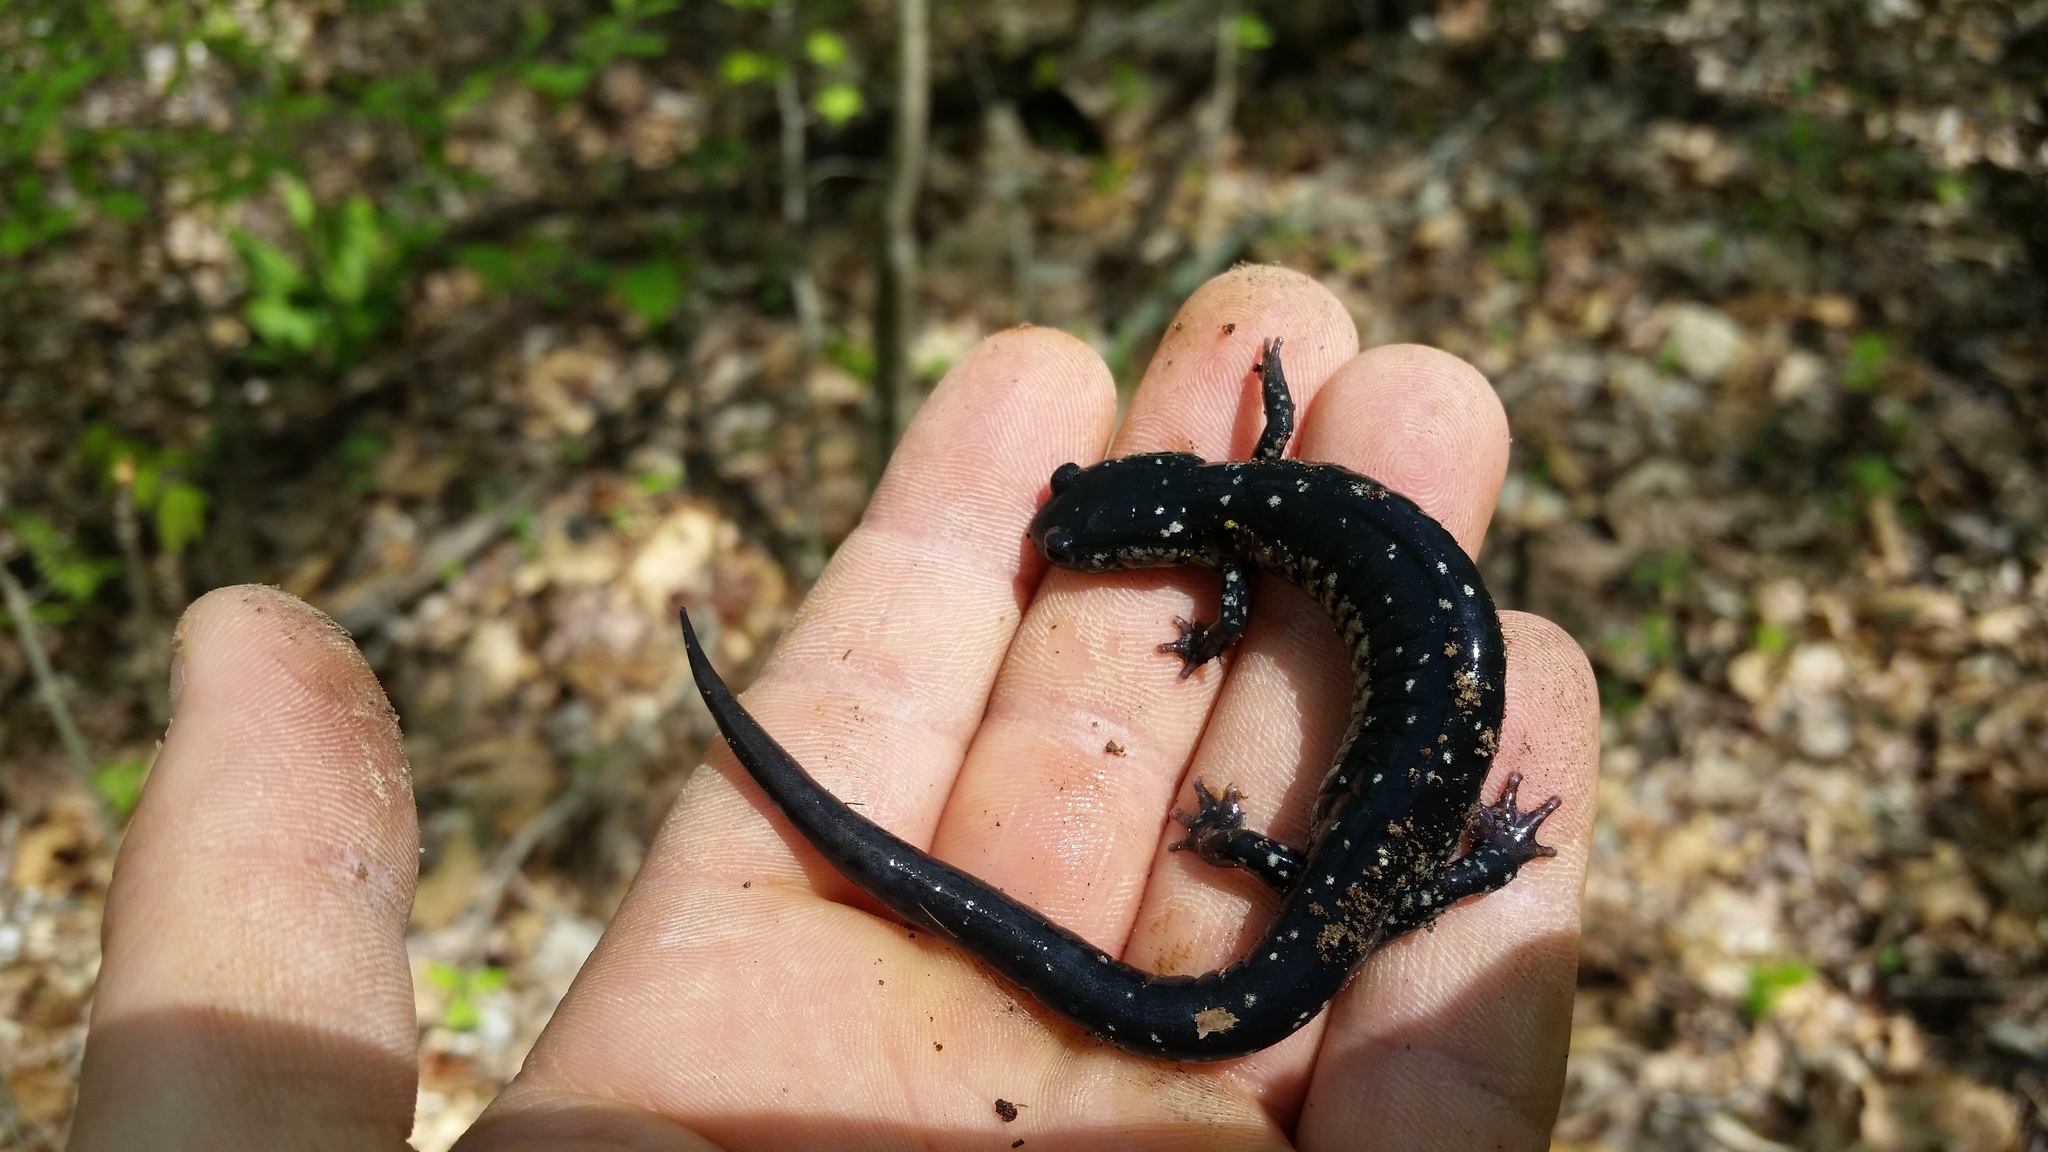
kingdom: Animalia
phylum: Chordata
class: Amphibia
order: Caudata
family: Plethodontidae
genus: Plethodon
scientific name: Plethodon glutinosus
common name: Northern slimy salamander
